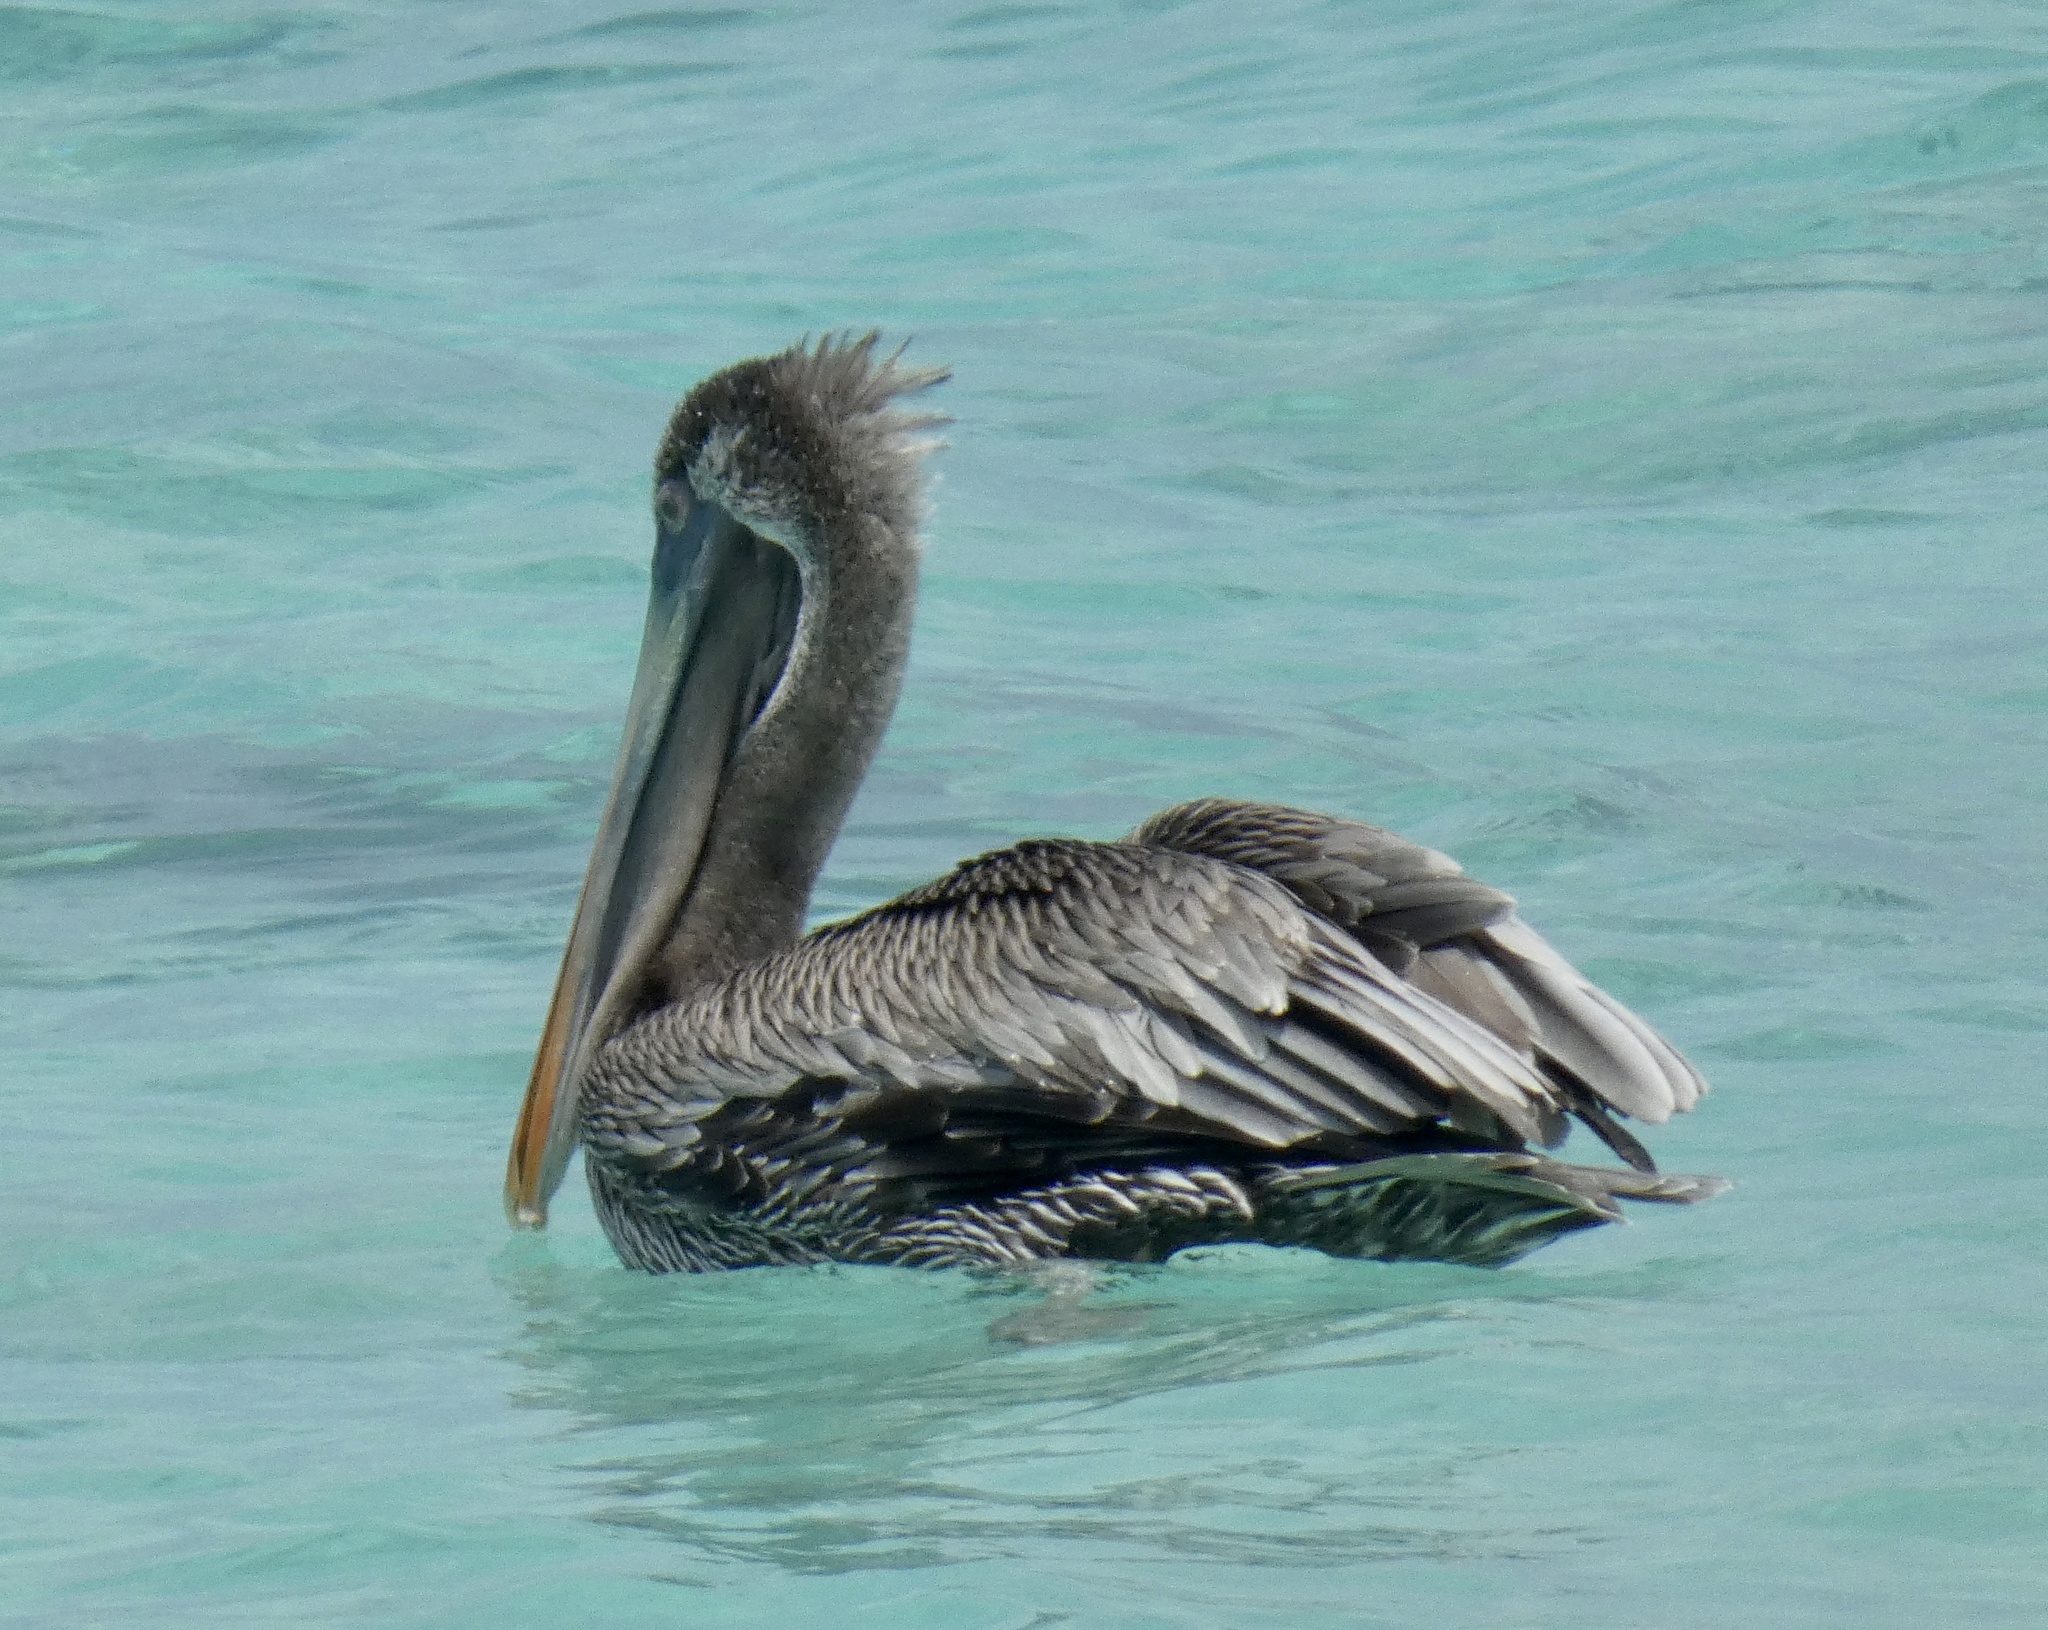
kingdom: Animalia
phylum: Chordata
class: Aves
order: Pelecaniformes
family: Pelecanidae
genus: Pelecanus
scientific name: Pelecanus occidentalis
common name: Brown pelican
